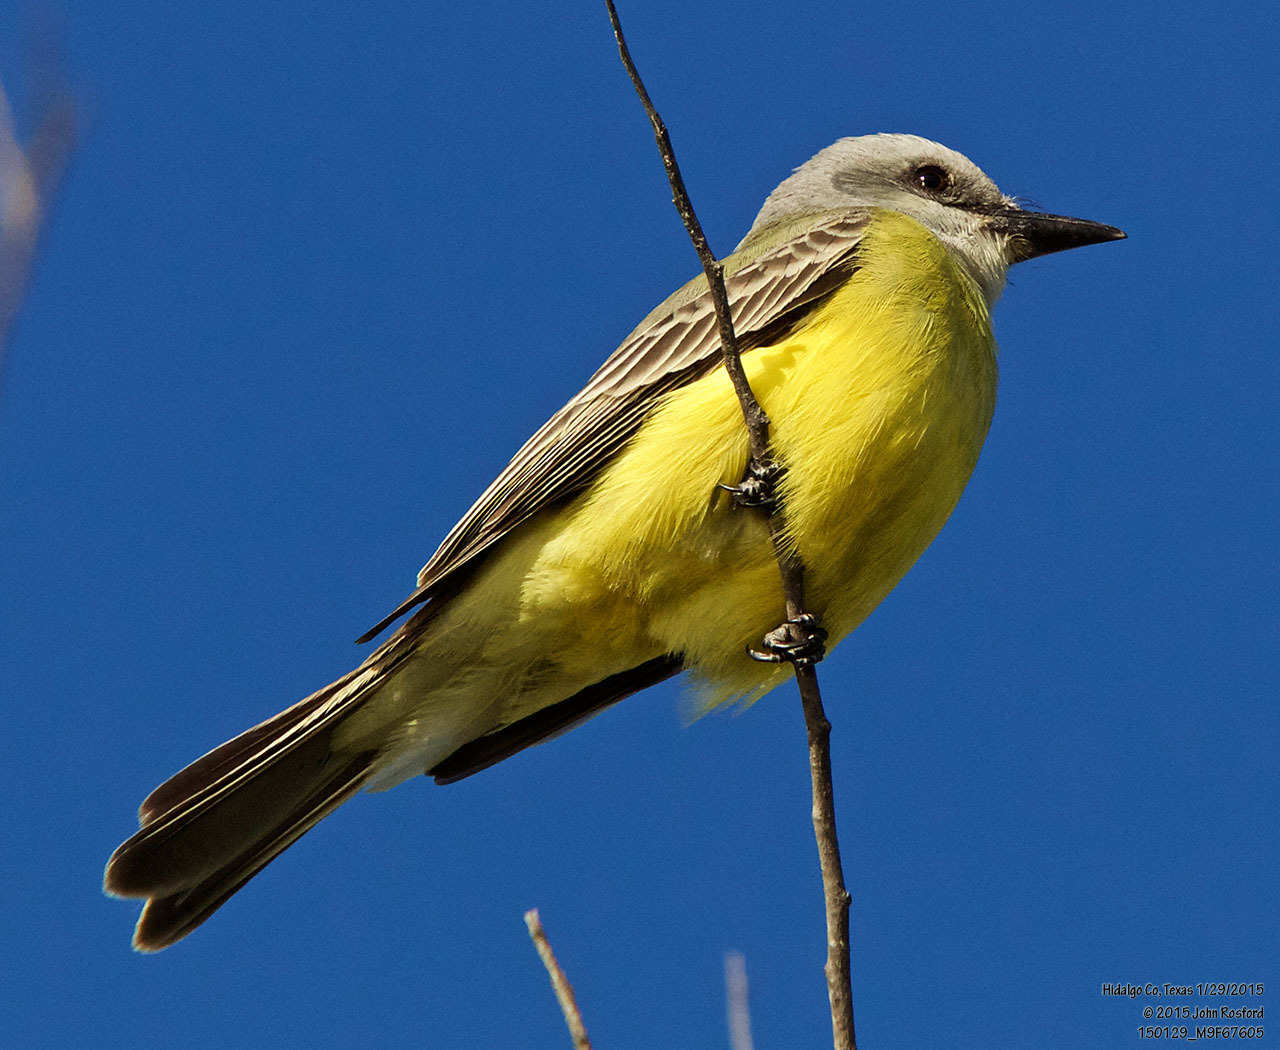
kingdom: Animalia
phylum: Chordata
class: Aves
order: Passeriformes
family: Tyrannidae
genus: Tyrannus
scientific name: Tyrannus melancholicus
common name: Tropical kingbird
